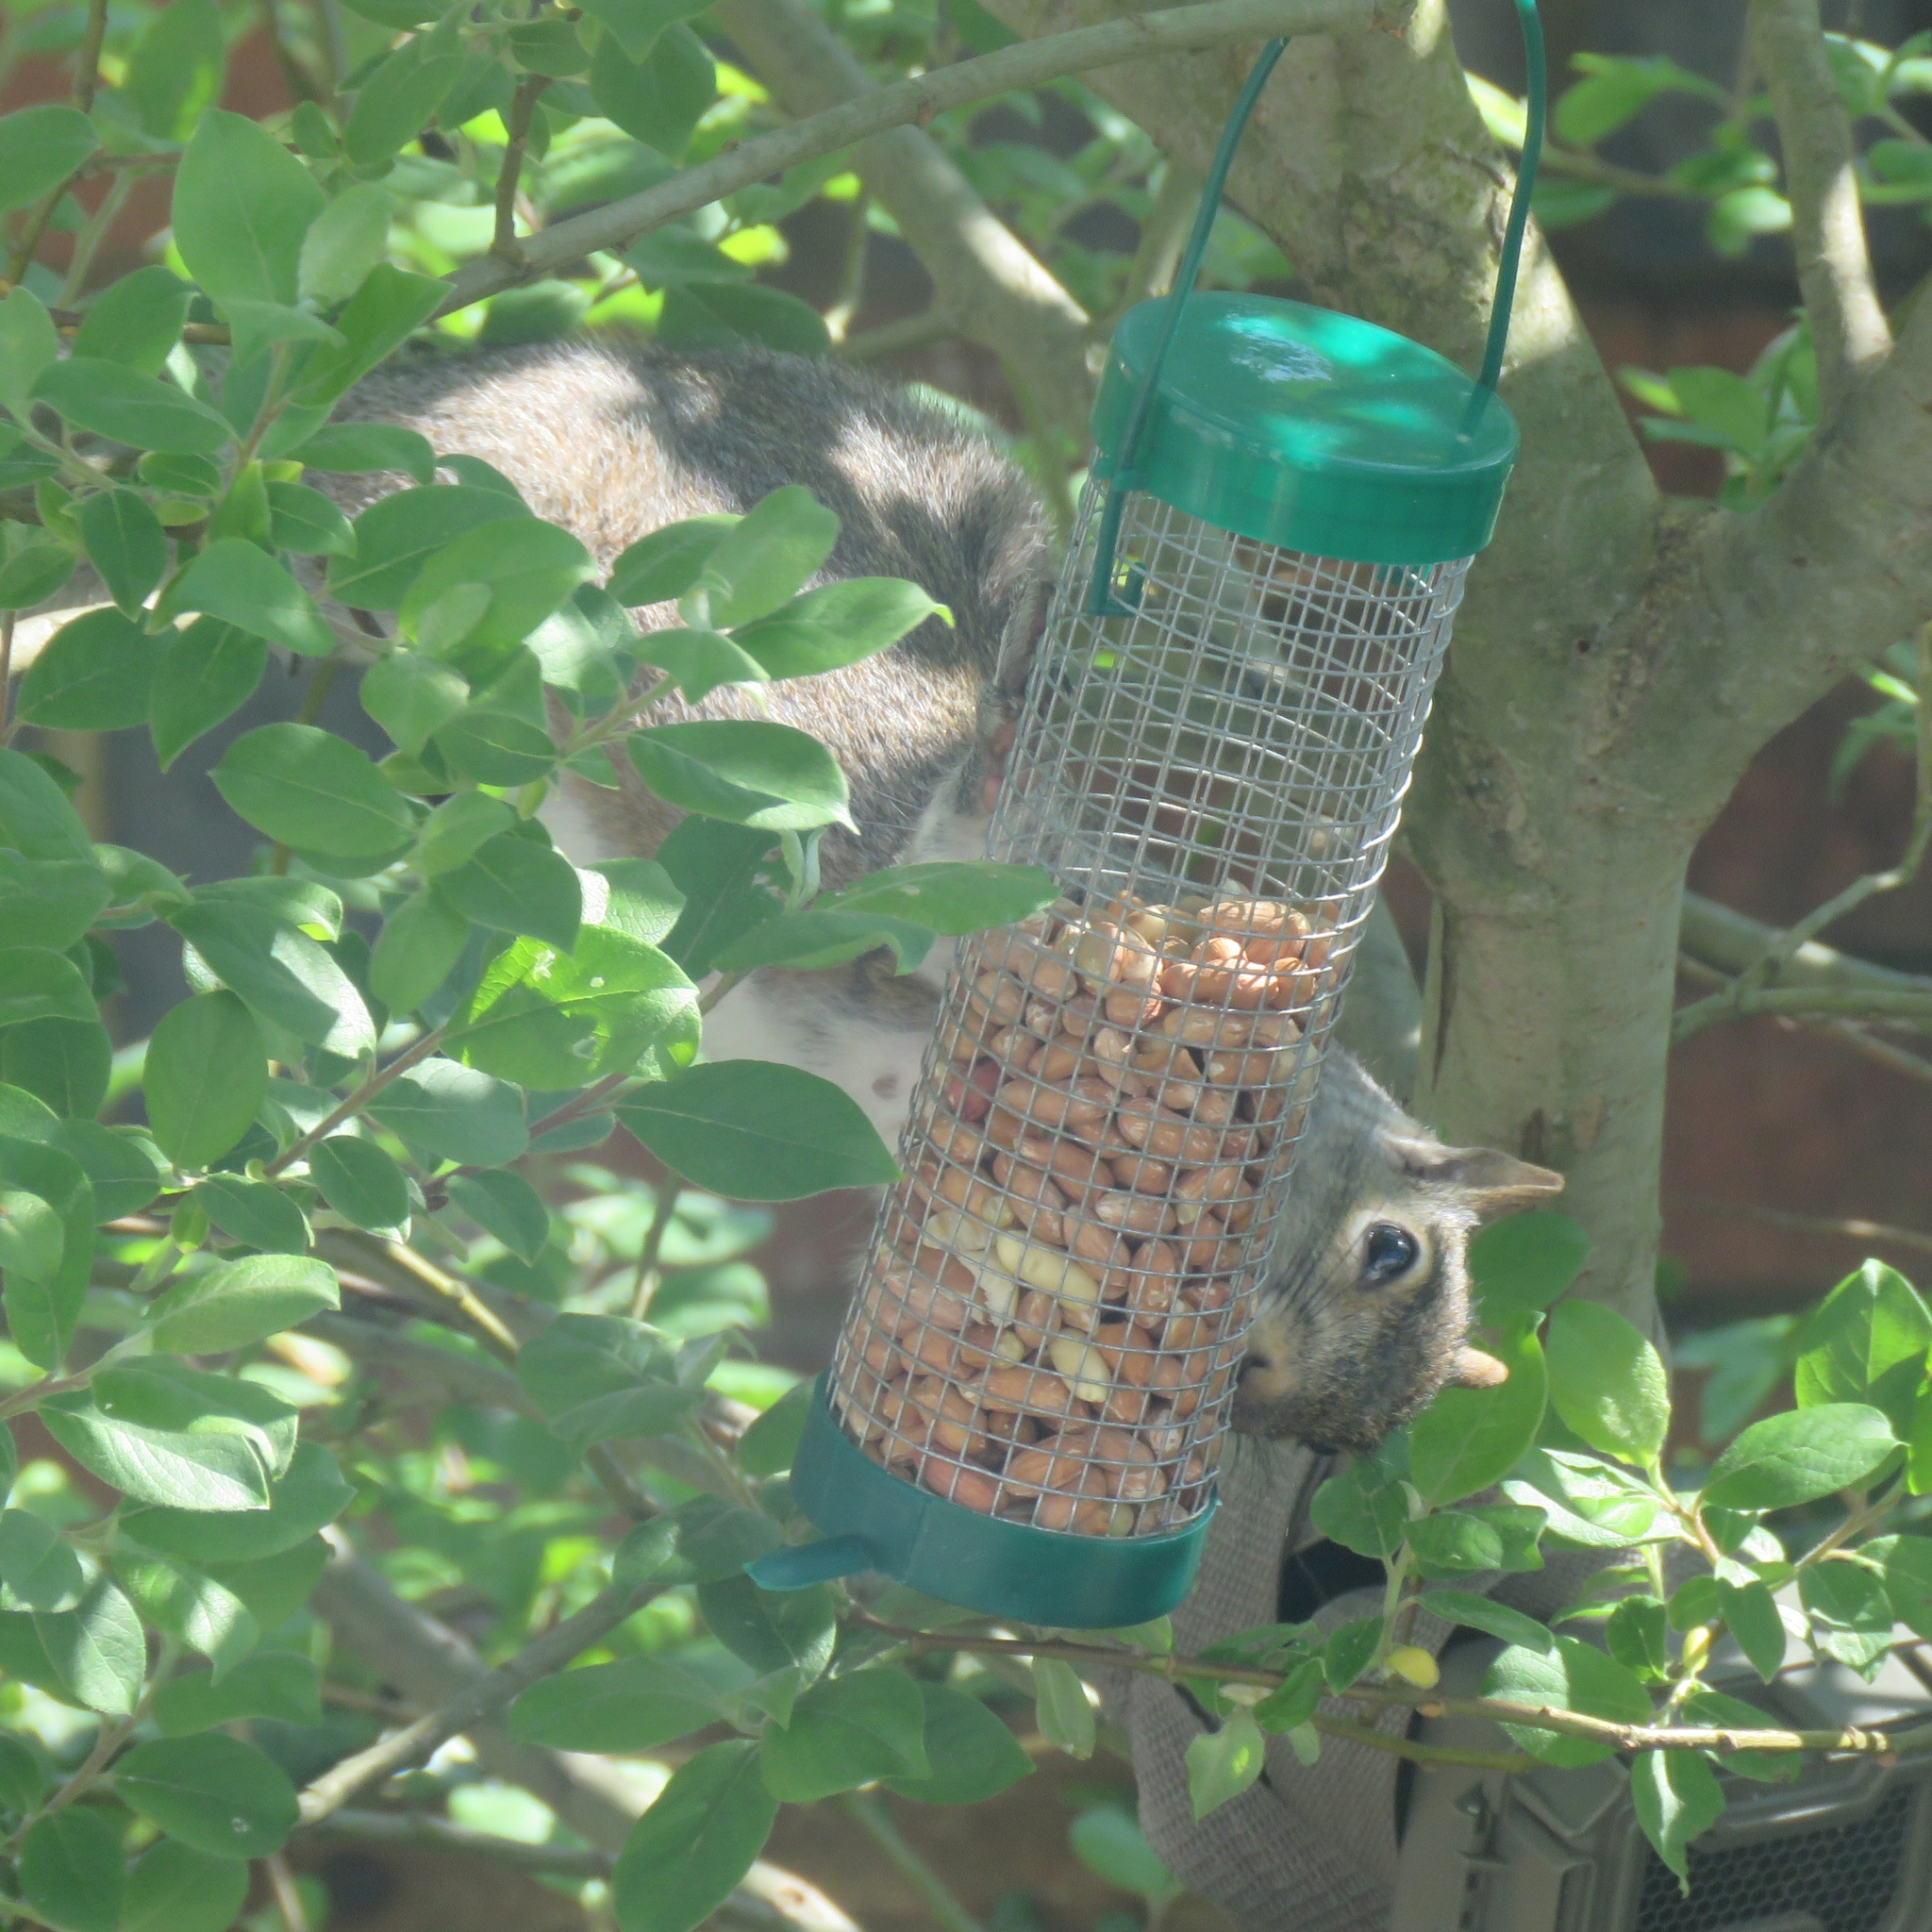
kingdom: Animalia
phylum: Chordata
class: Mammalia
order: Rodentia
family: Sciuridae
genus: Sciurus
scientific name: Sciurus carolinensis
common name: Eastern gray squirrel
